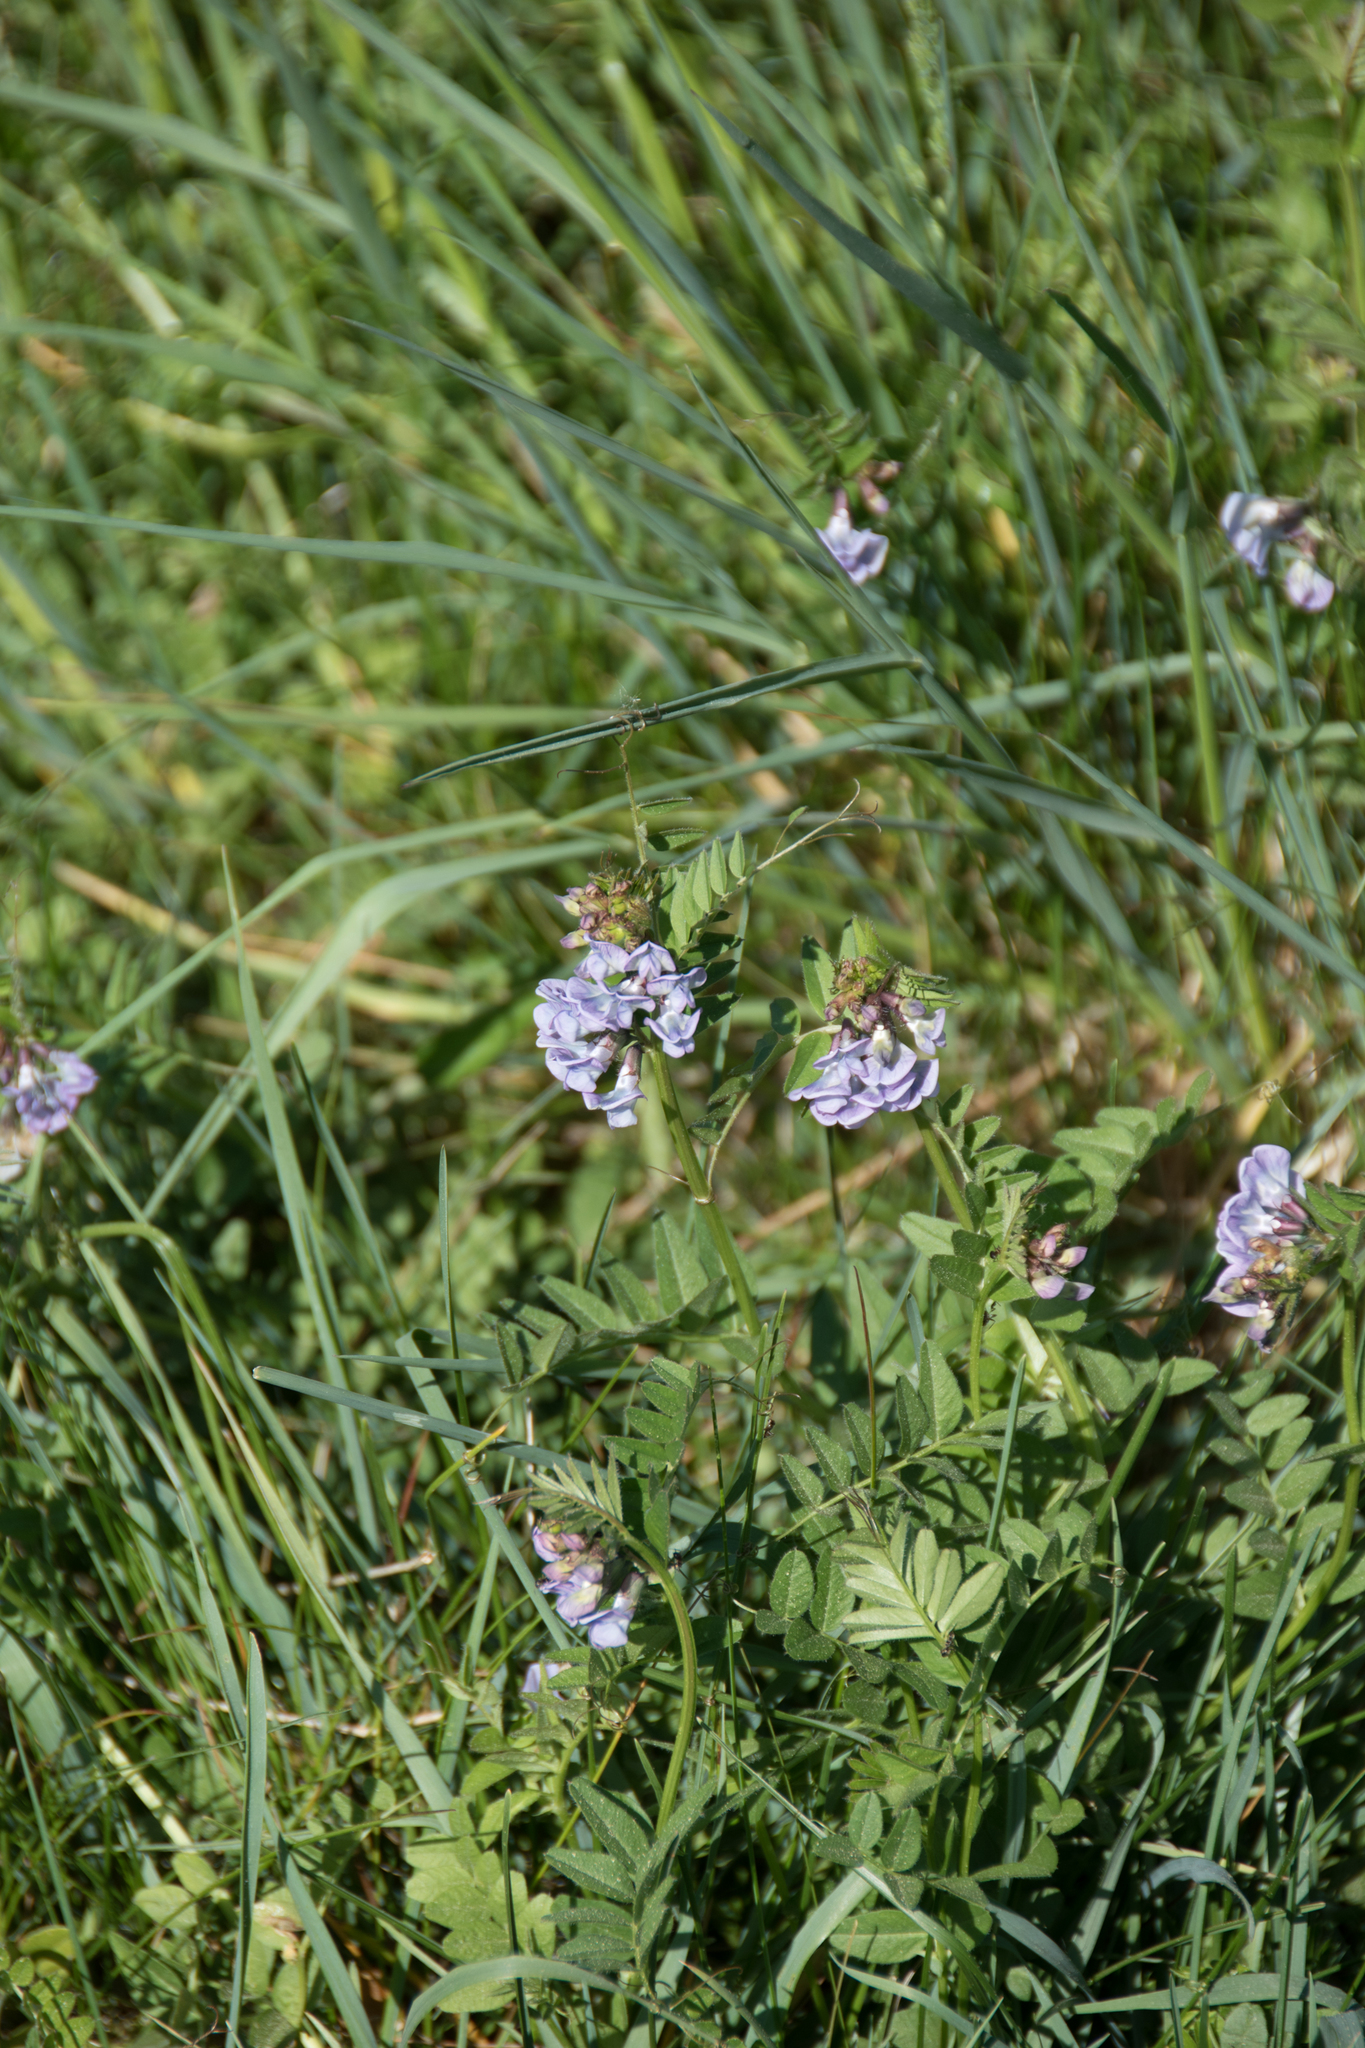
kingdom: Plantae
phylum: Tracheophyta
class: Magnoliopsida
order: Fabales
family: Fabaceae
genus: Vicia
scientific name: Vicia sepium
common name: Bush vetch
